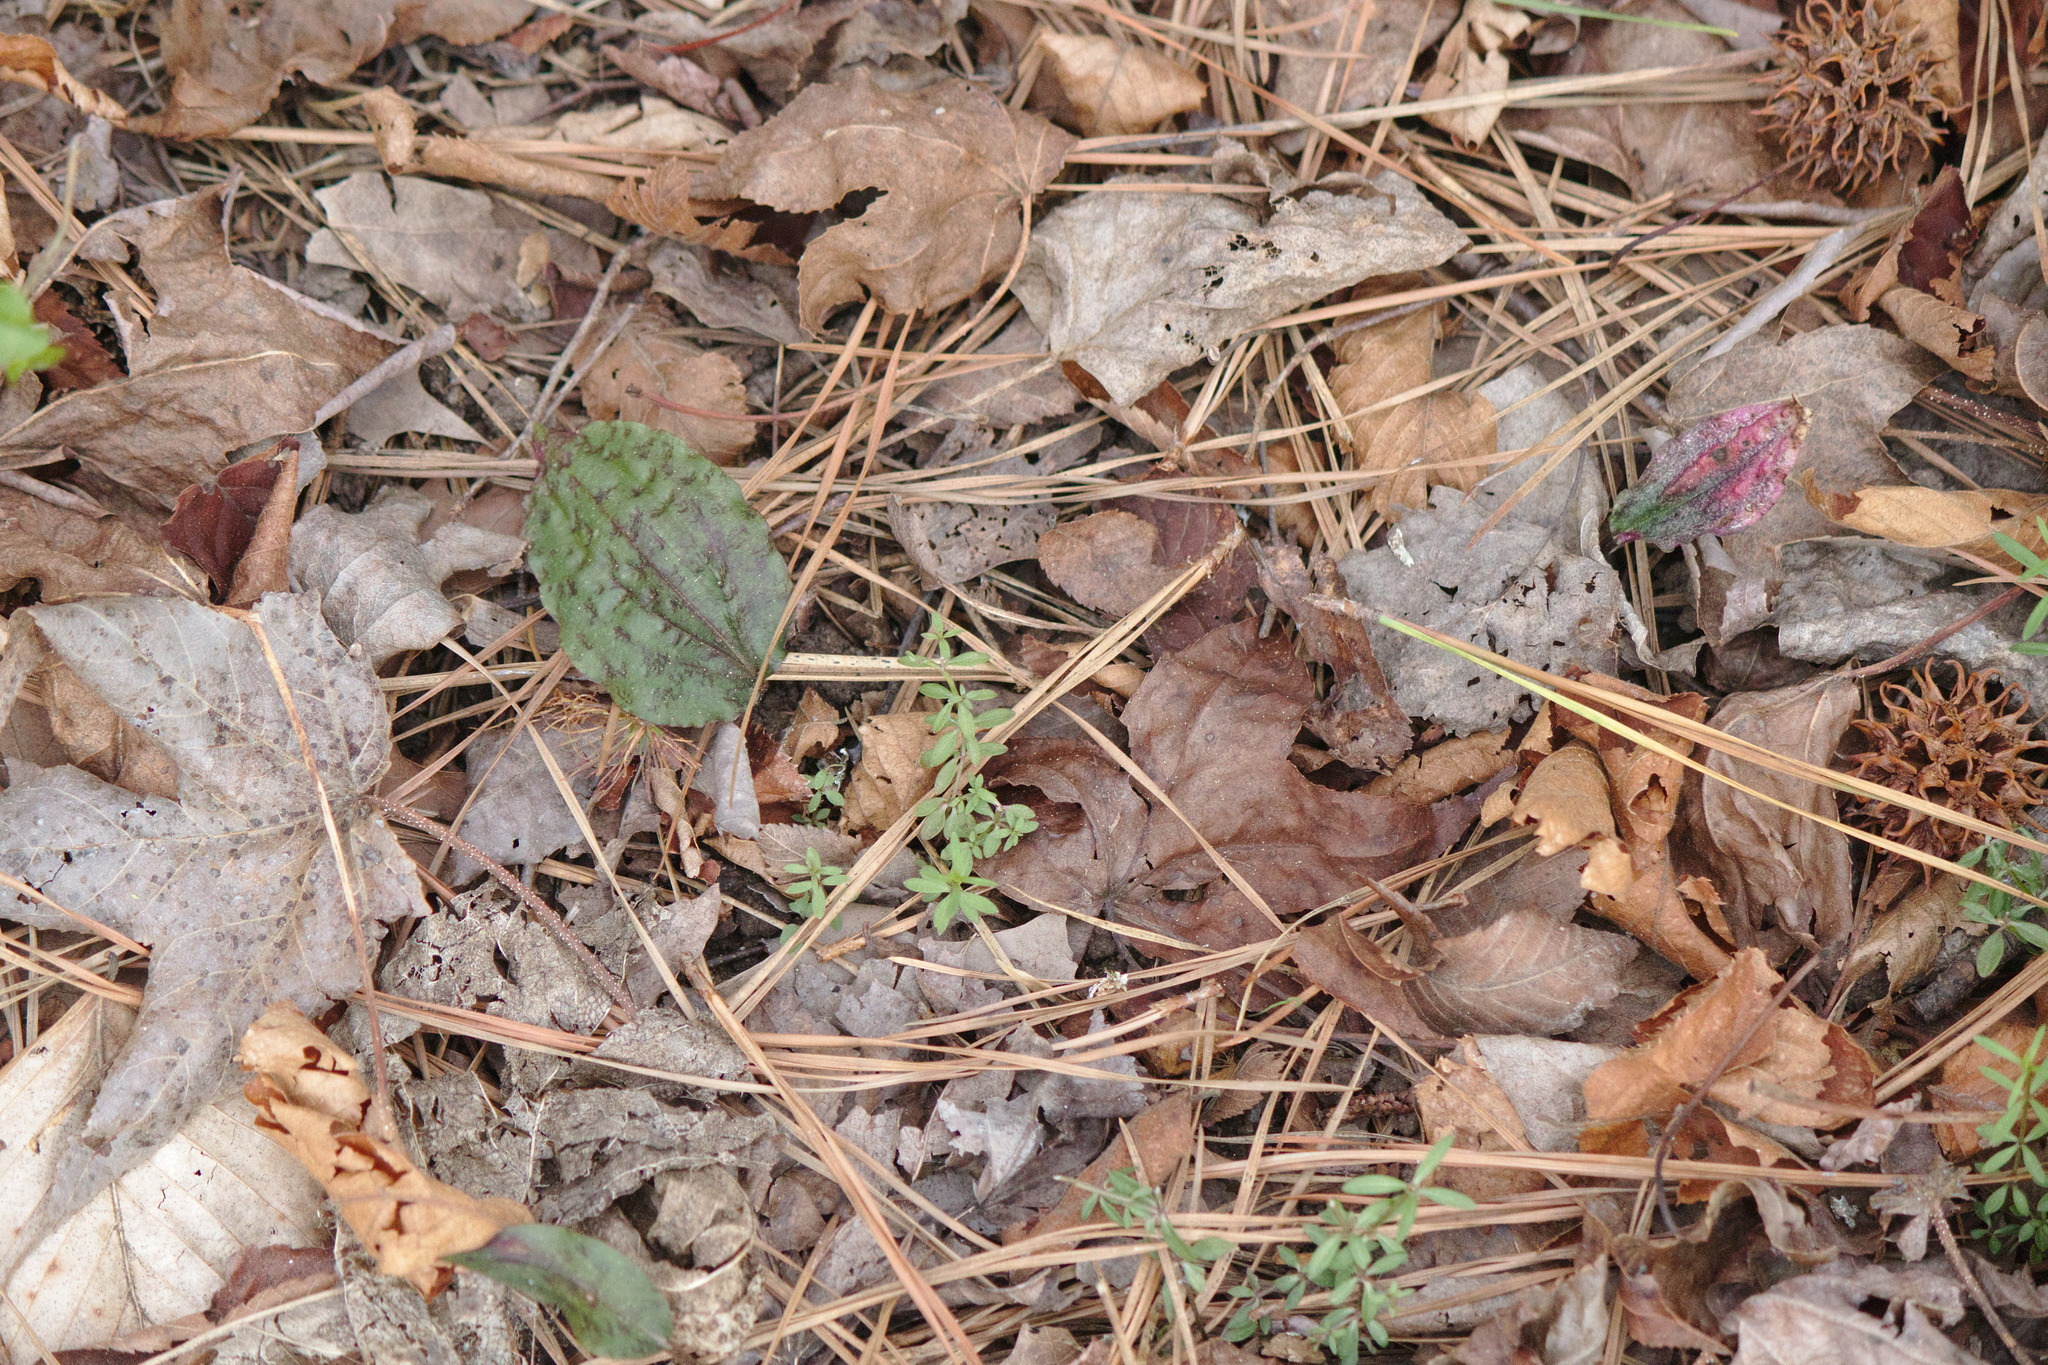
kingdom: Plantae
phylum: Tracheophyta
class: Liliopsida
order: Asparagales
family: Orchidaceae
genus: Tipularia
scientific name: Tipularia discolor
